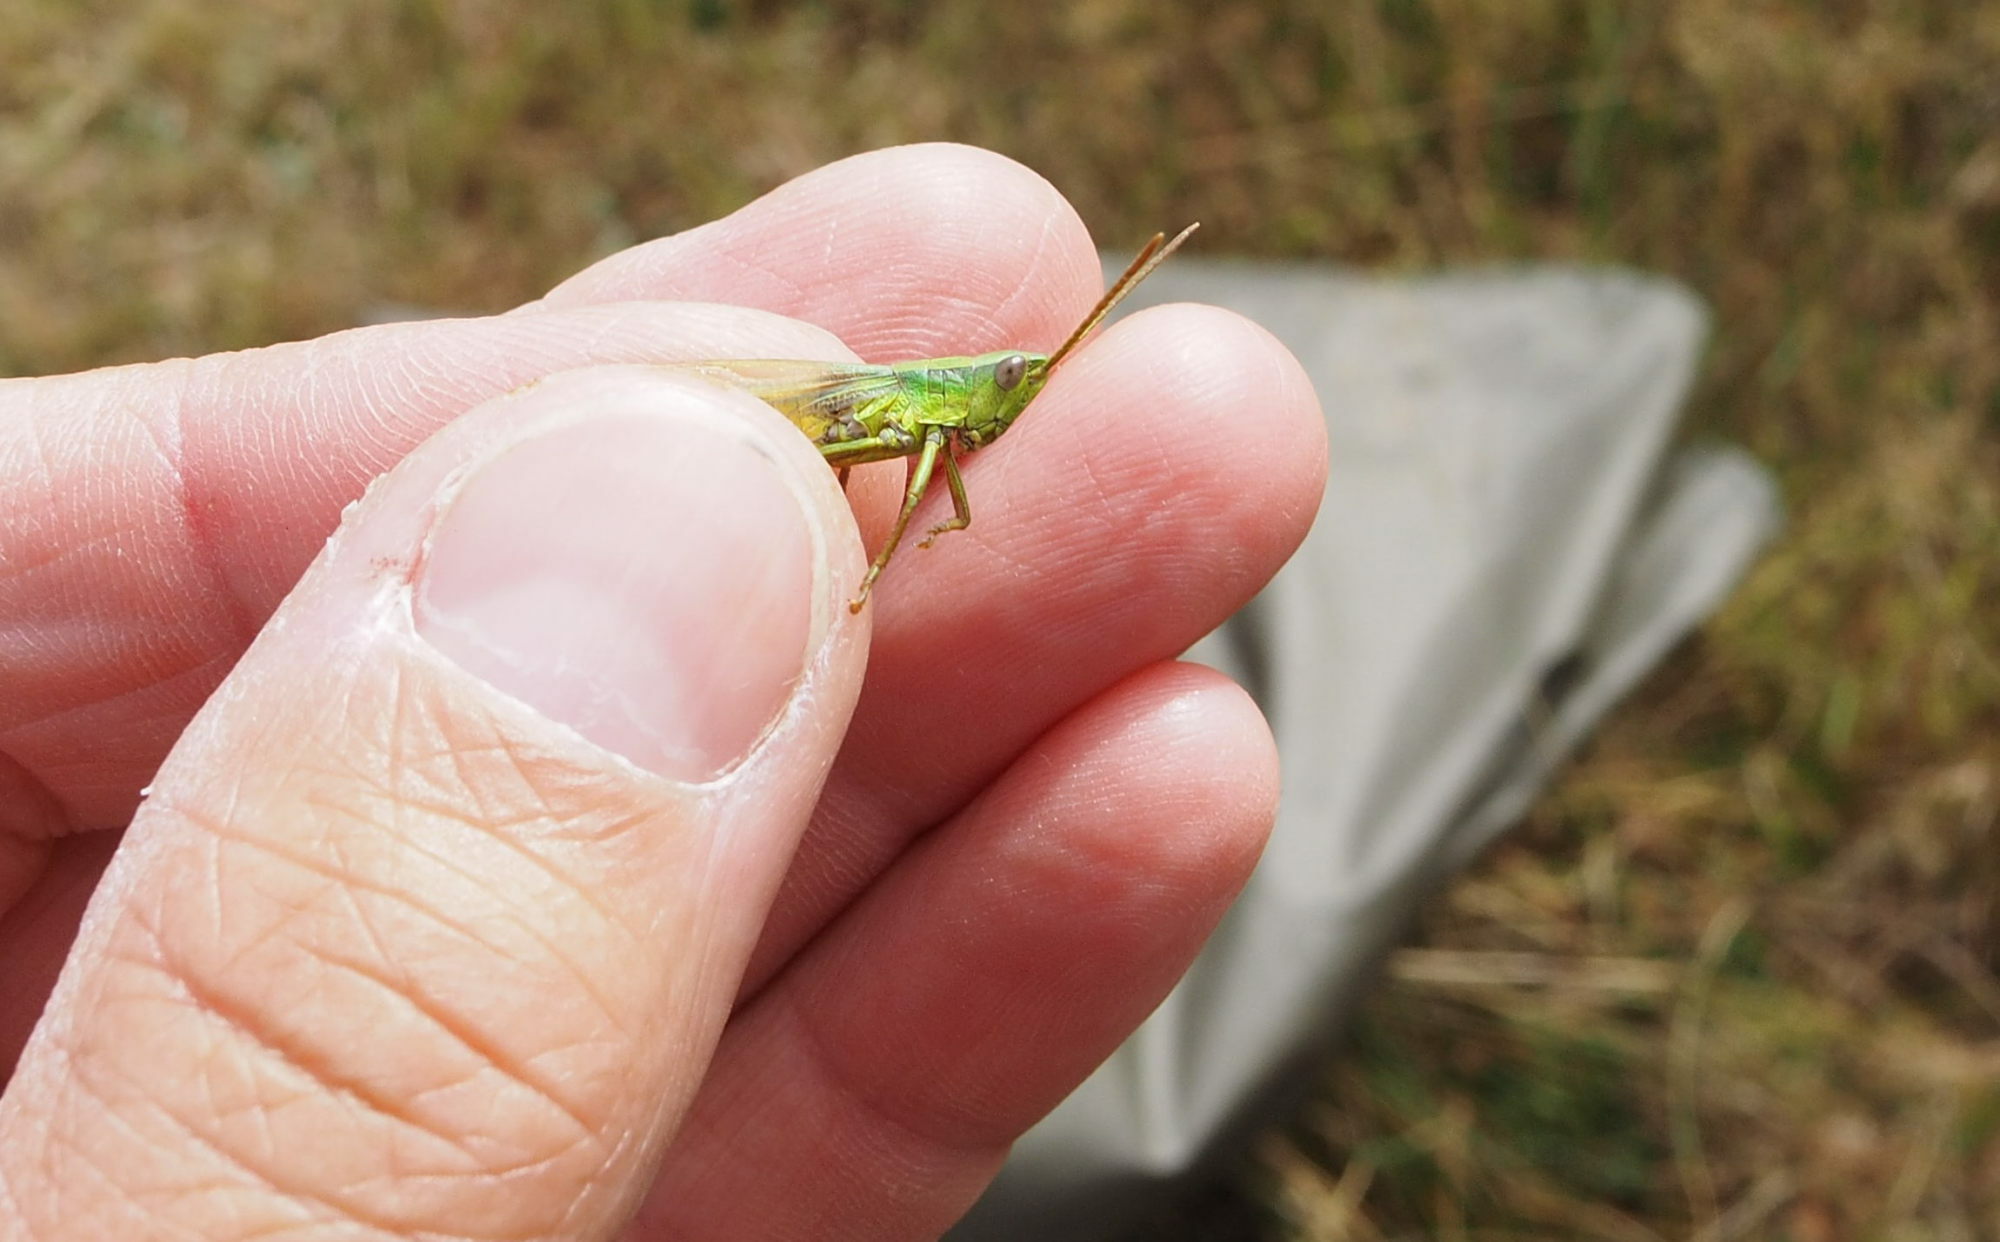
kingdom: Animalia
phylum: Arthropoda
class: Insecta
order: Orthoptera
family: Acrididae
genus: Chrysochraon
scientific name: Chrysochraon dispar
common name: Large gold grasshopper
